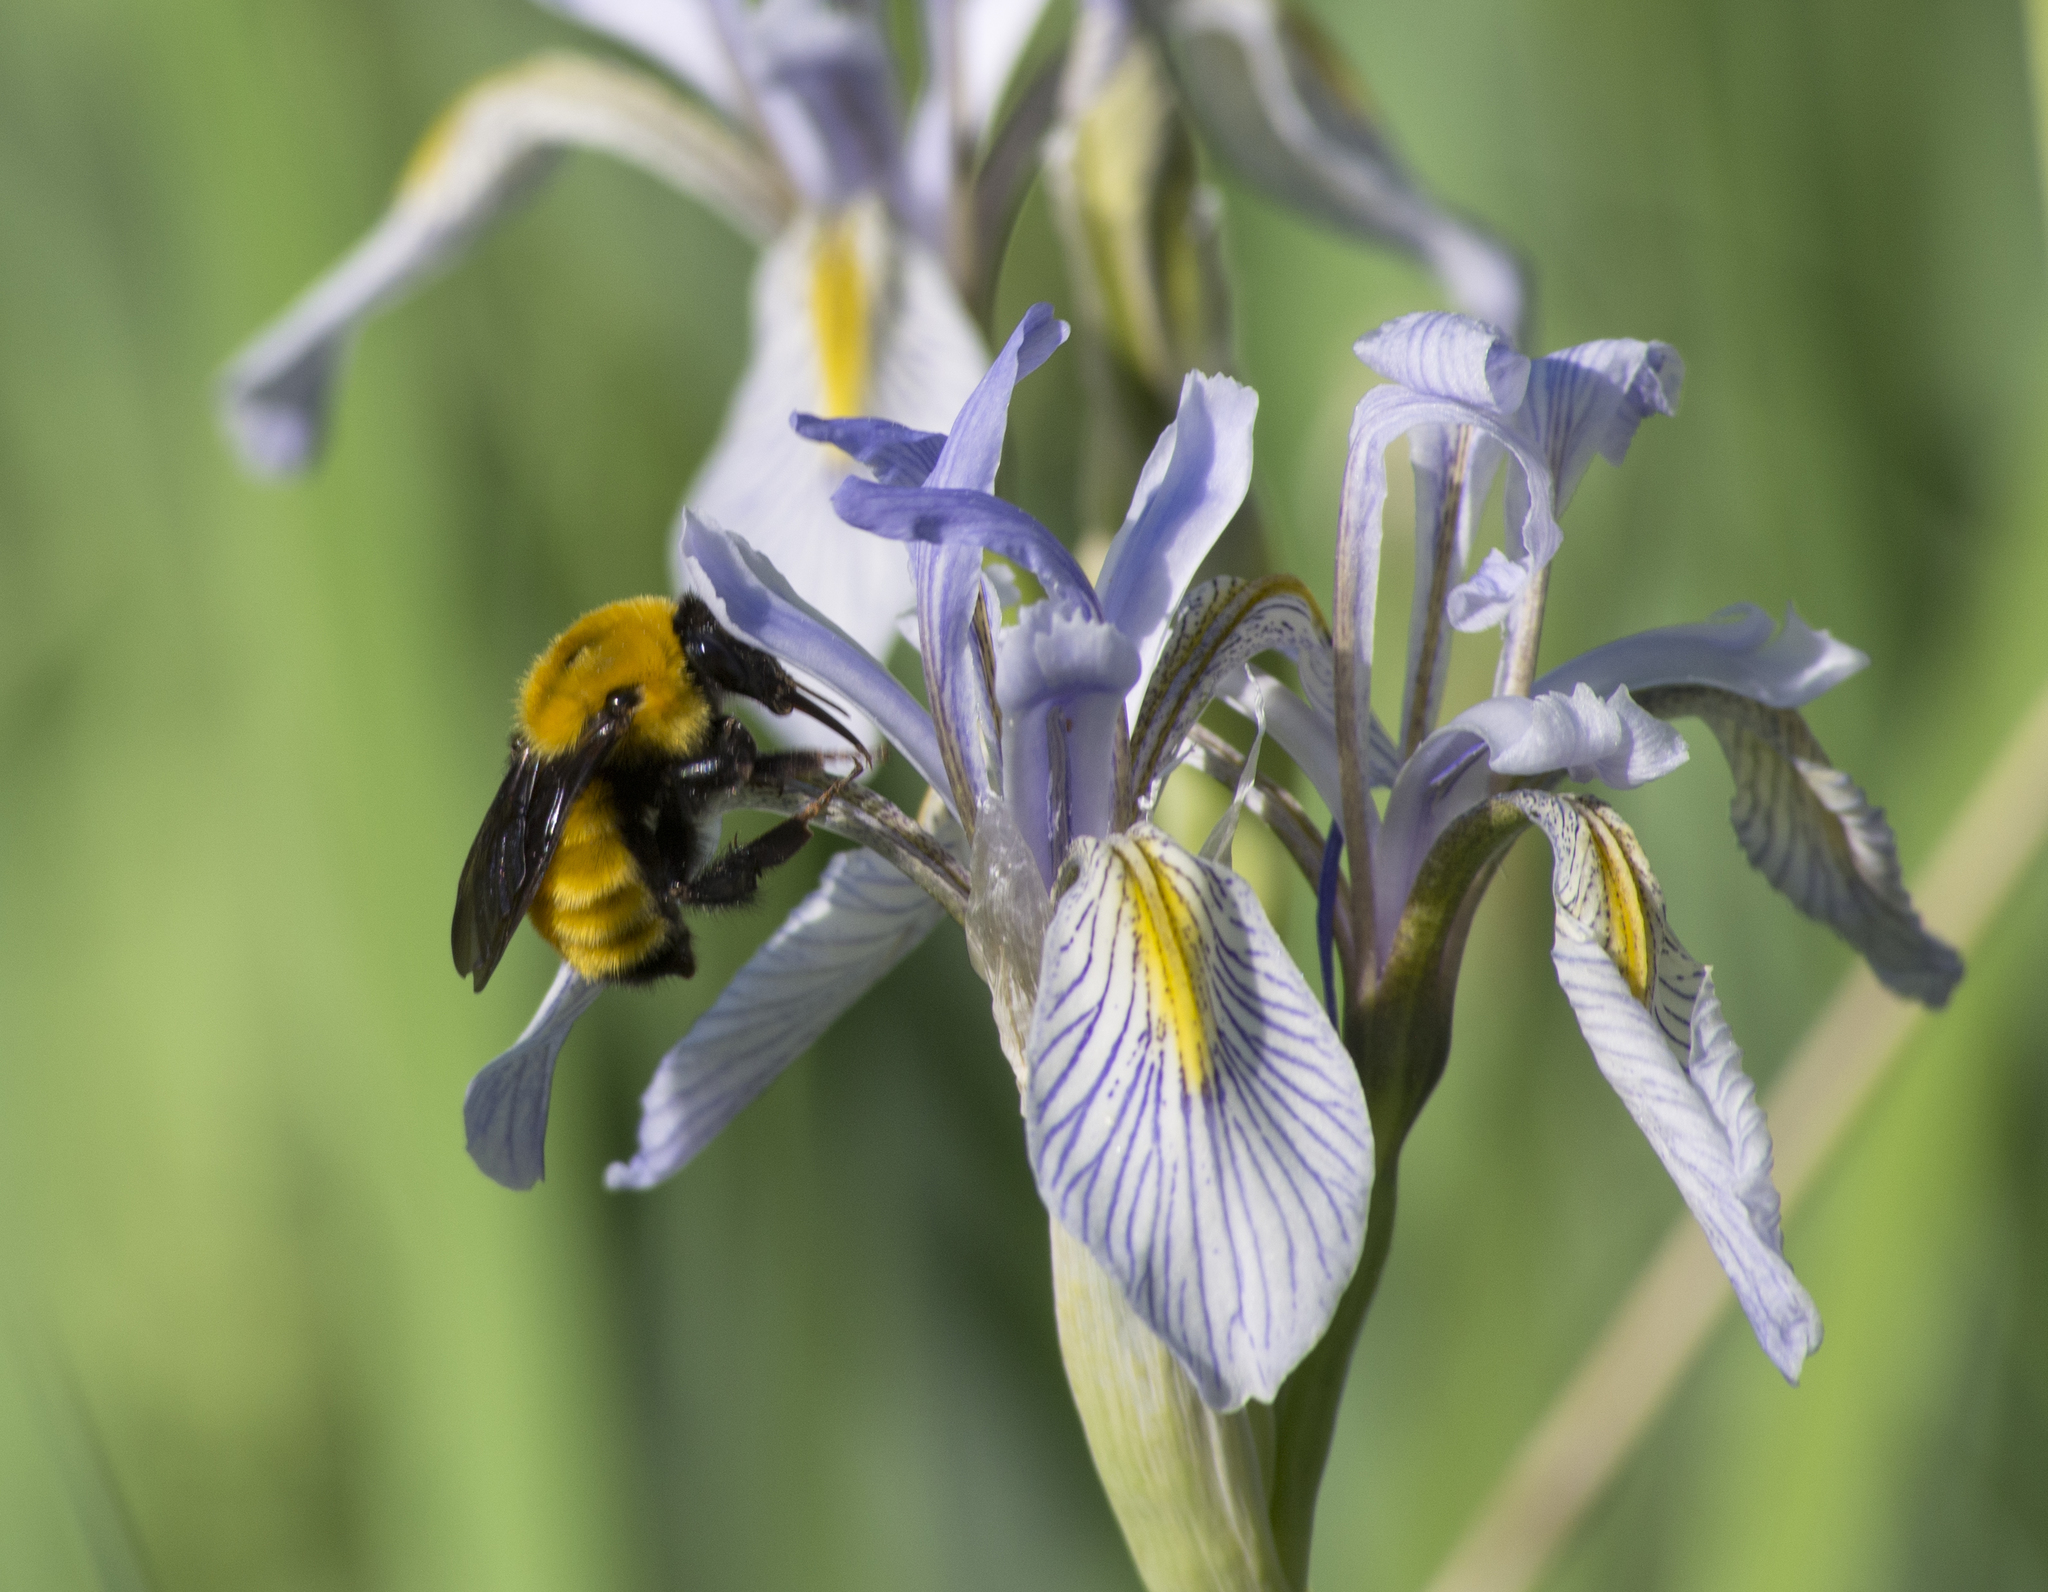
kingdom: Animalia
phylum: Arthropoda
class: Insecta
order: Hymenoptera
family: Apidae
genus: Bombus
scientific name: Bombus fervidus
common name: Yellow bumble bee
